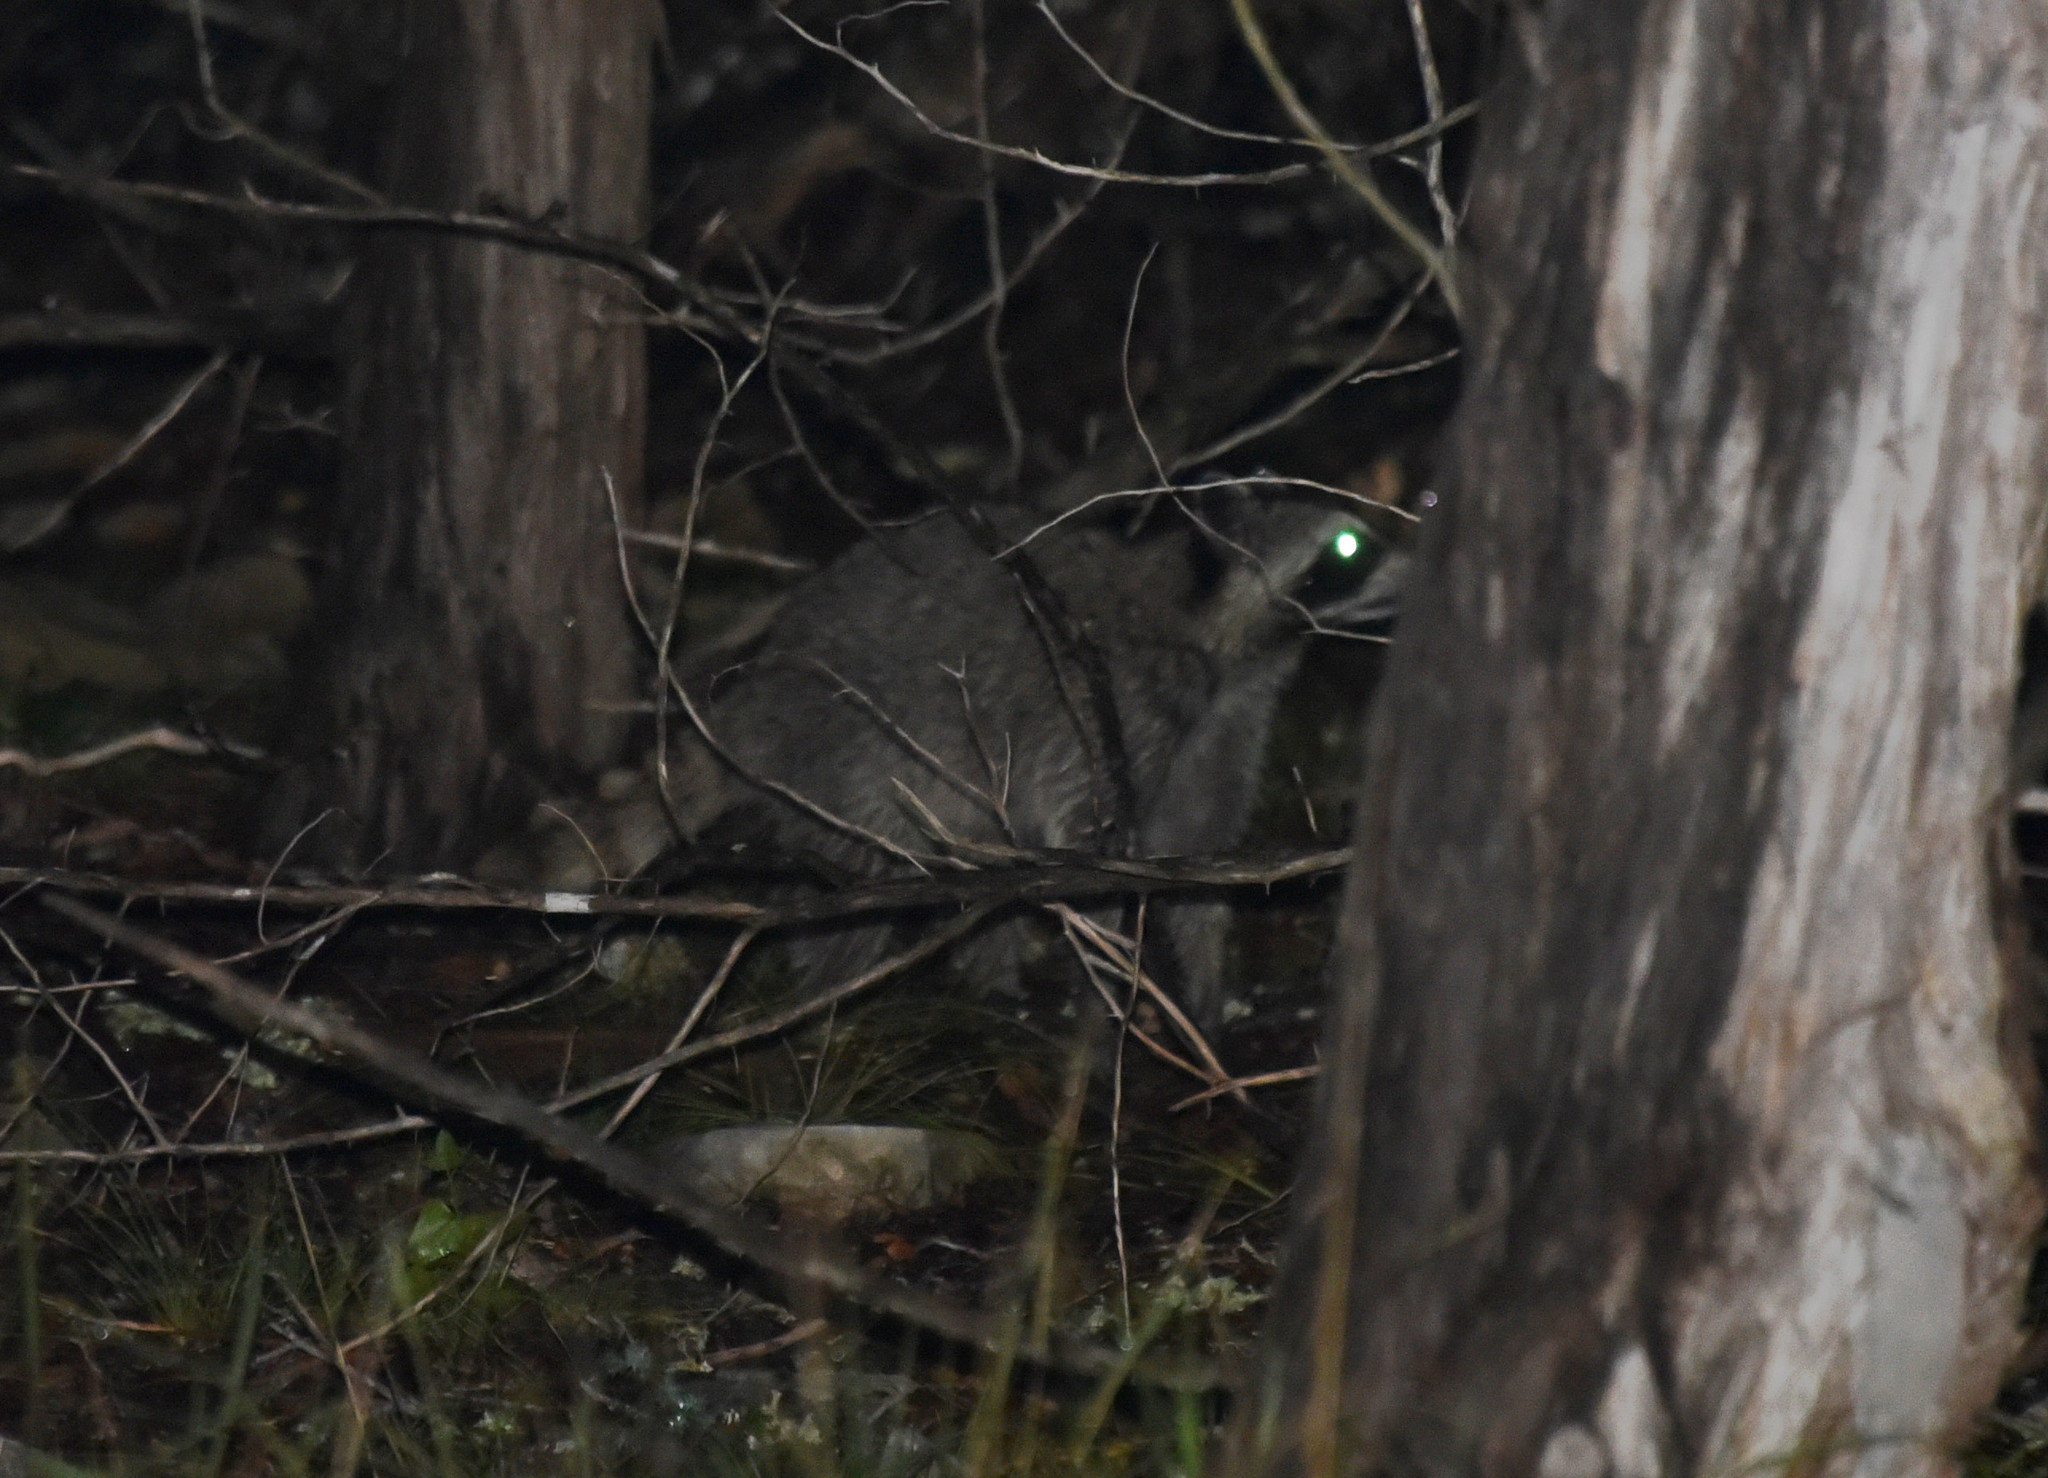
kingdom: Animalia
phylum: Chordata
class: Mammalia
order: Carnivora
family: Procyonidae
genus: Procyon
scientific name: Procyon lotor
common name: Raccoon
